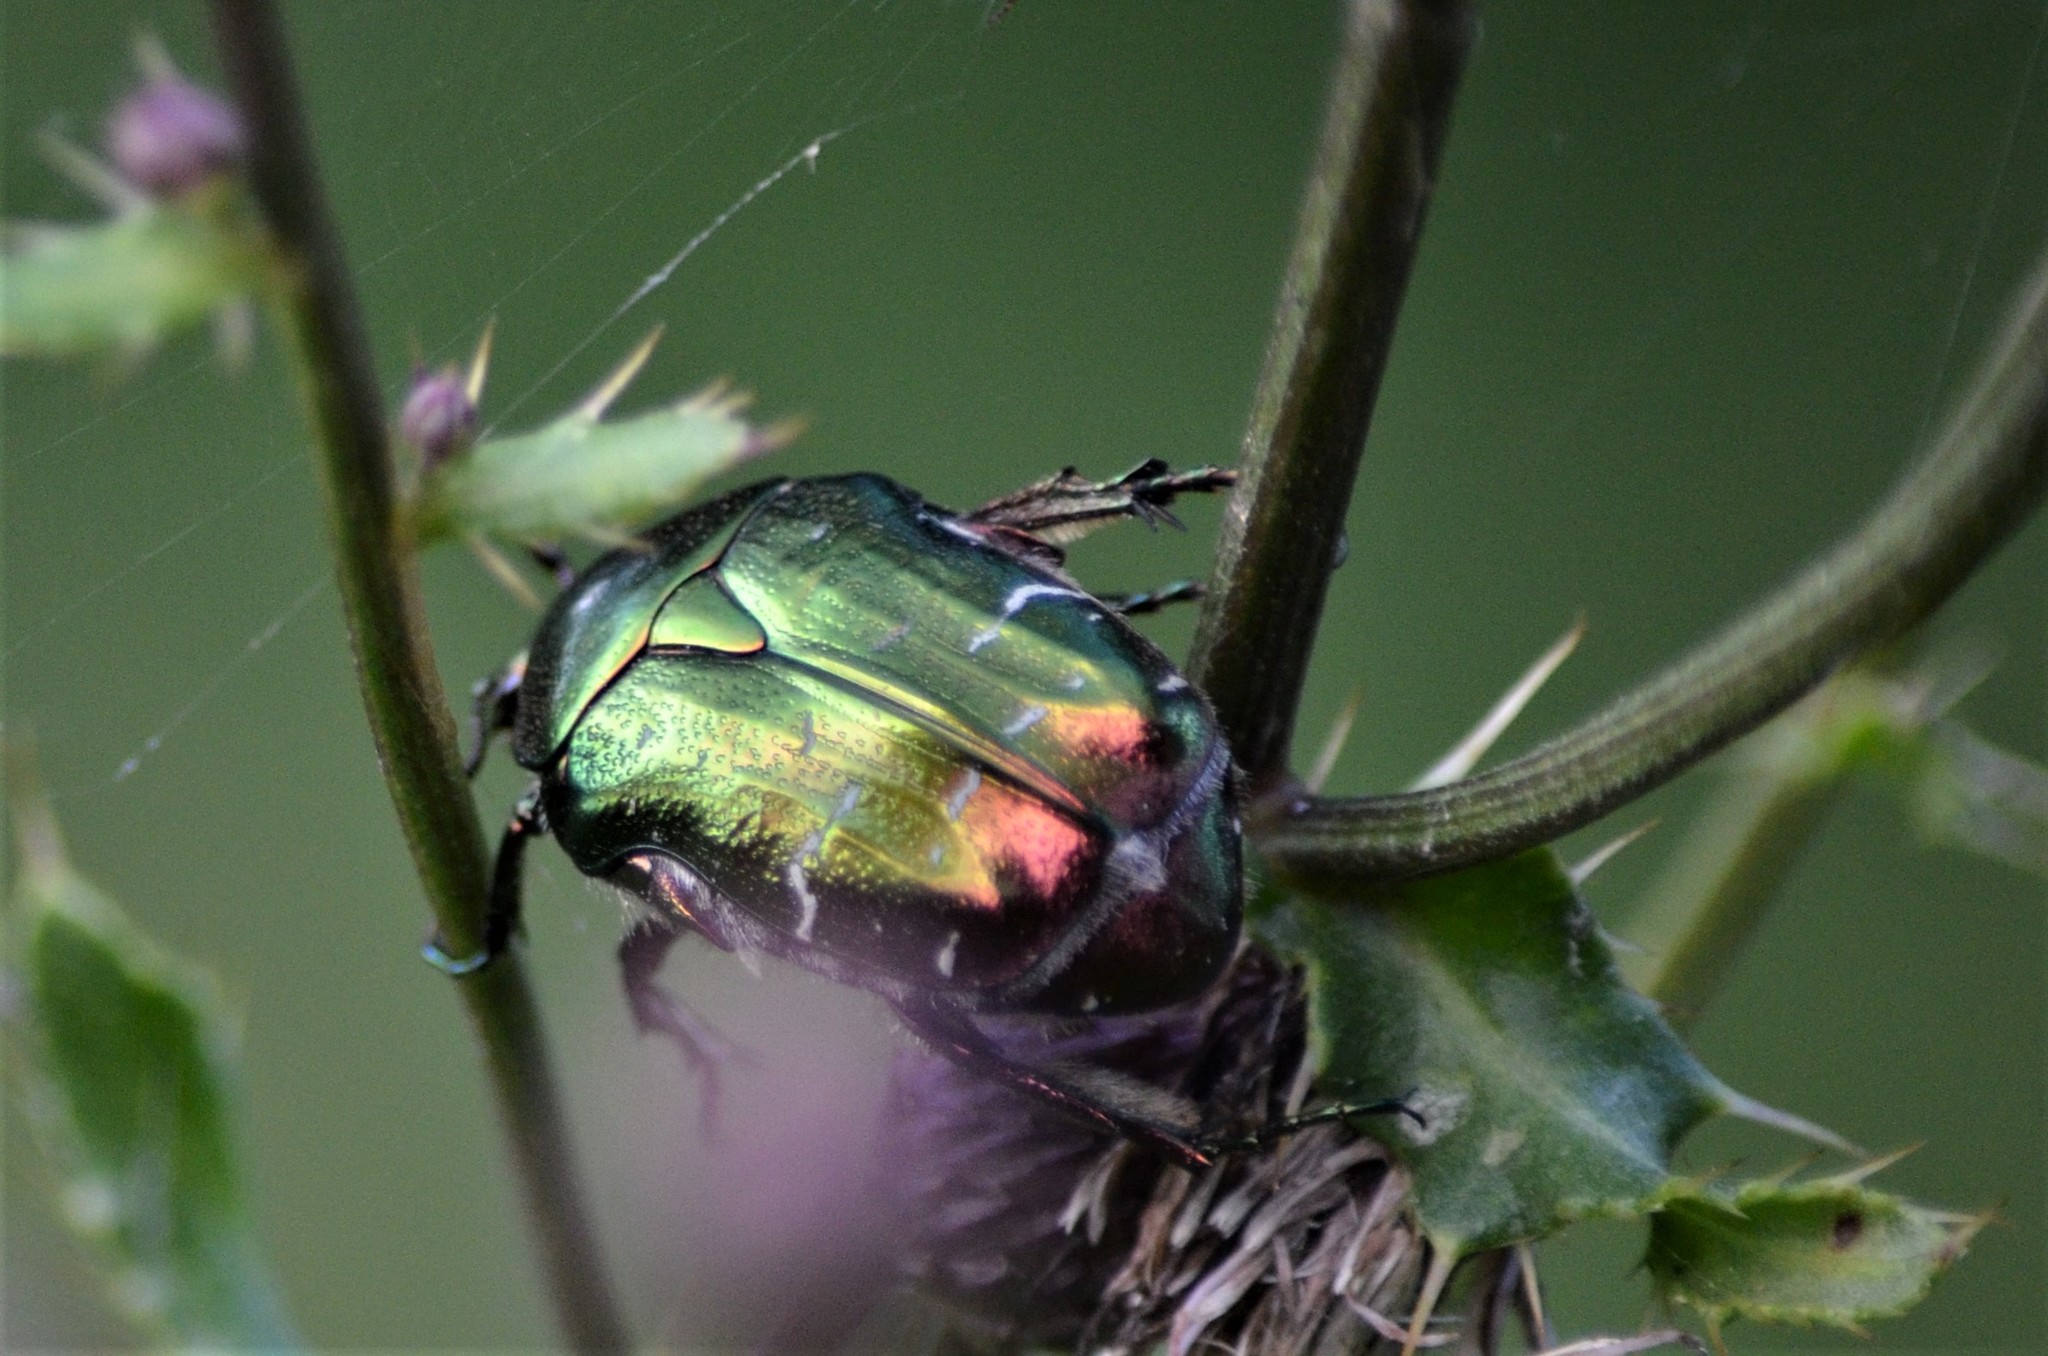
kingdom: Animalia
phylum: Arthropoda
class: Insecta
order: Coleoptera
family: Scarabaeidae
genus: Cetonia
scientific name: Cetonia aurata
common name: Rose chafer
